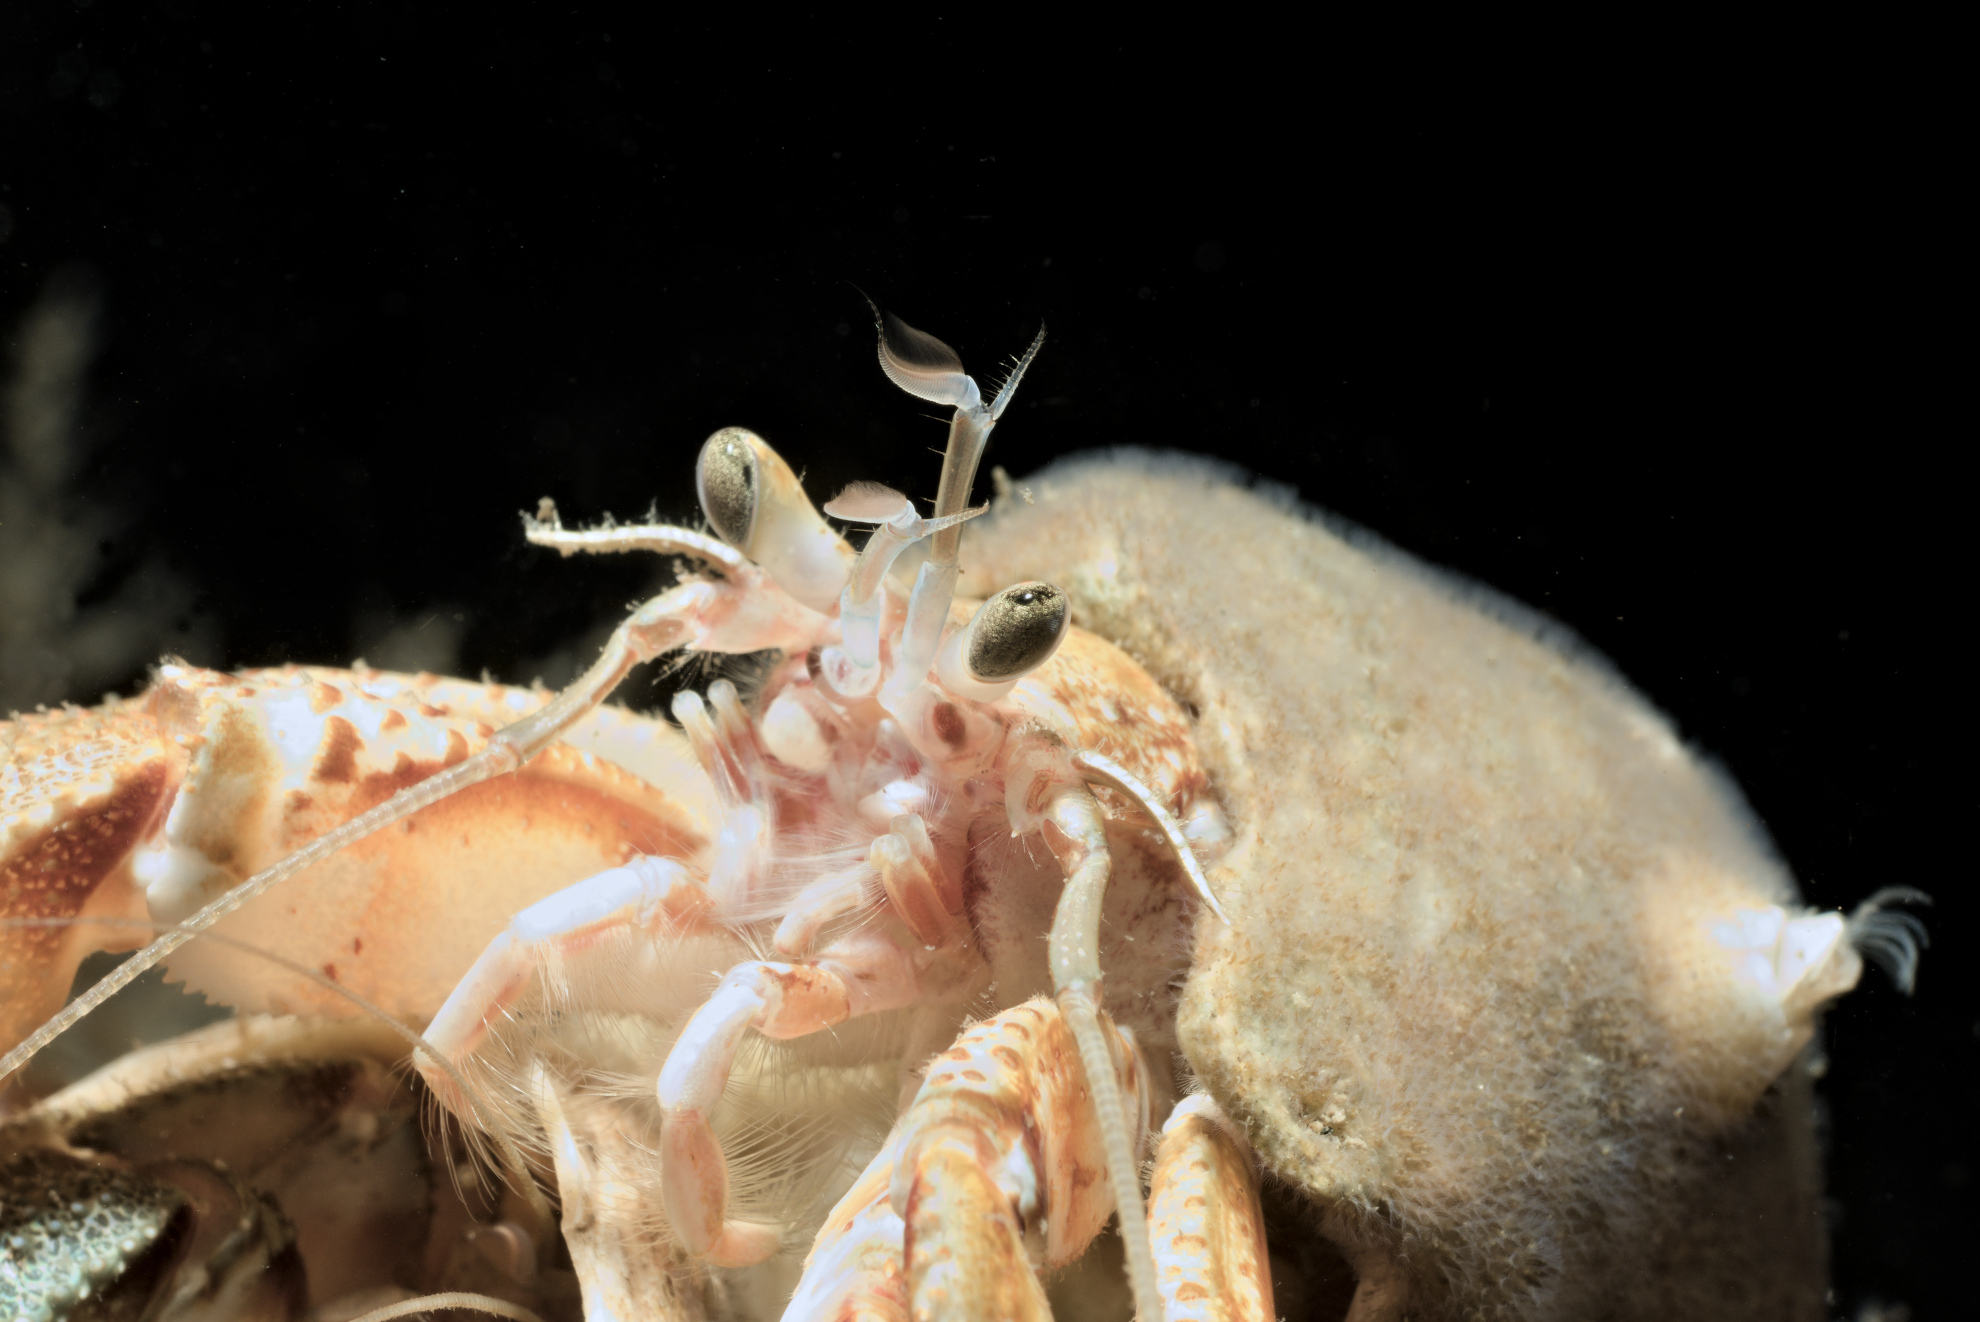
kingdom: Animalia
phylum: Arthropoda
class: Malacostraca
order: Decapoda
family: Paguridae
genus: Pagurus
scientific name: Pagurus bernhardus
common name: Hermit crab
